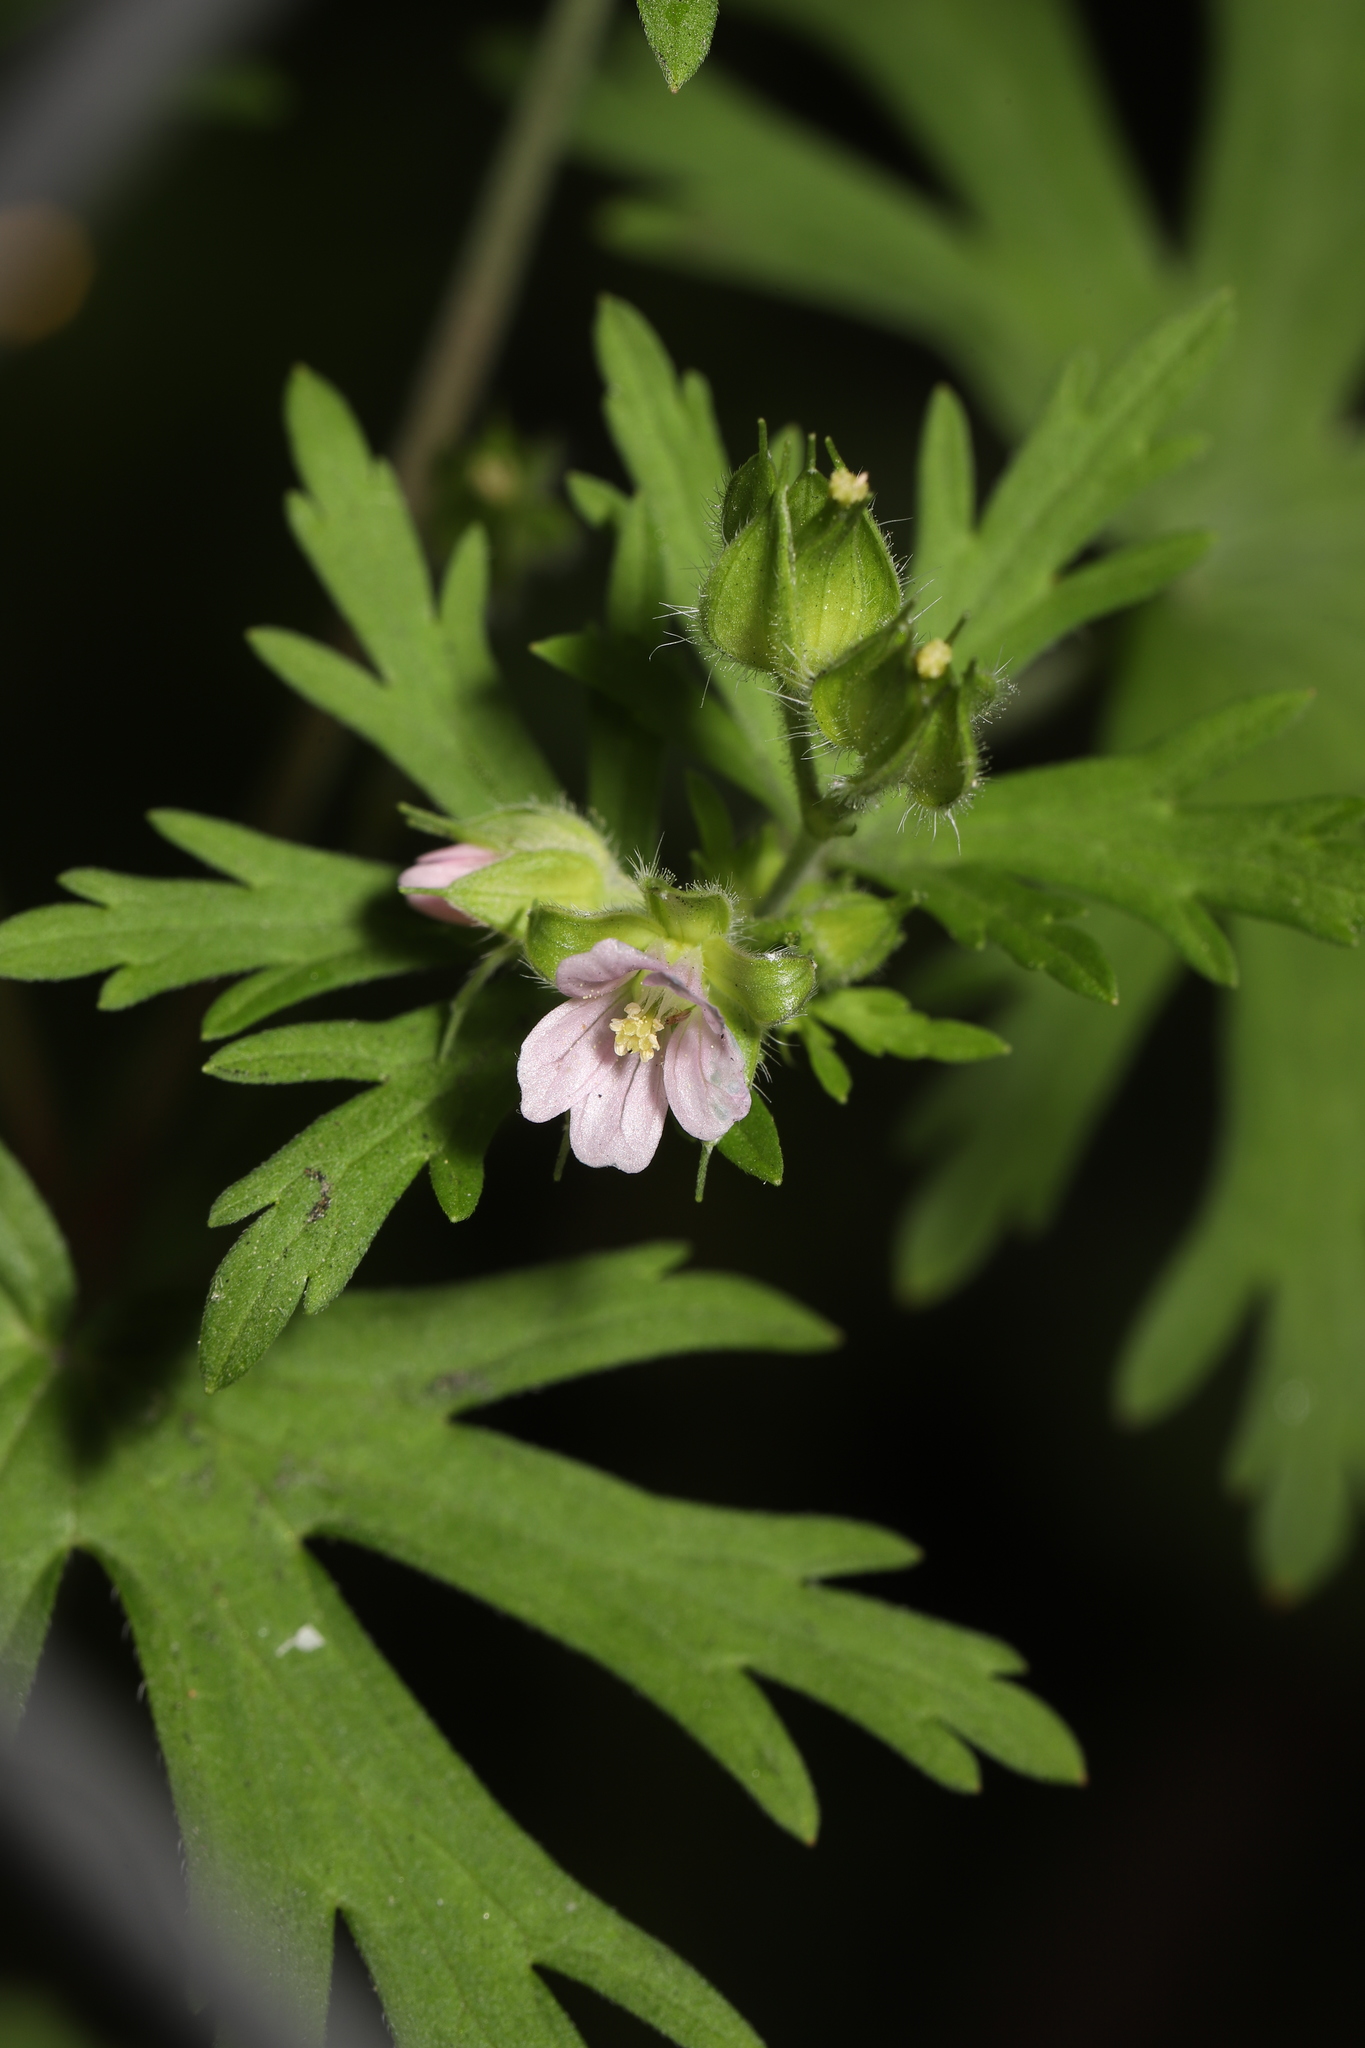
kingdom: Plantae
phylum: Tracheophyta
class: Magnoliopsida
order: Geraniales
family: Geraniaceae
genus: Geranium
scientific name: Geranium carolinianum
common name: Carolina crane's-bill
